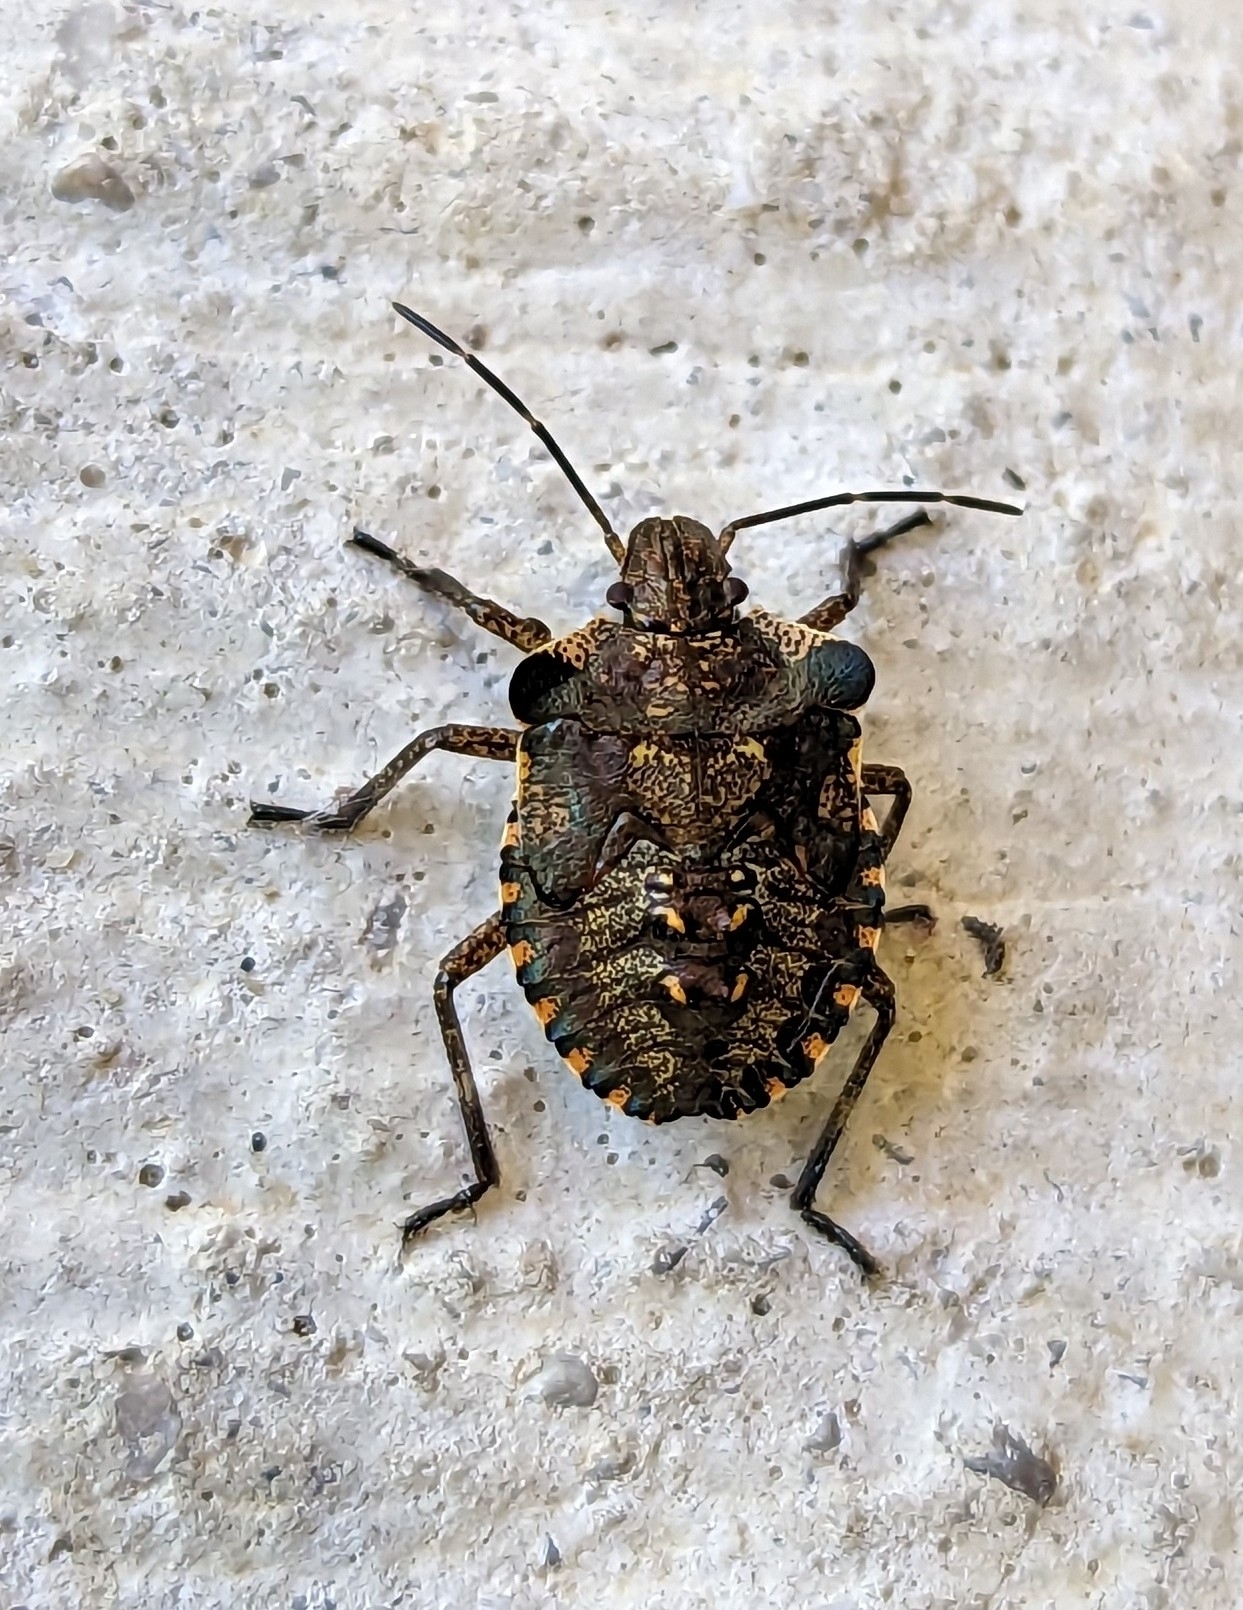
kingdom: Animalia
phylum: Arthropoda
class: Insecta
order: Hemiptera
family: Pentatomidae
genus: Pentatoma
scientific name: Pentatoma rufipes
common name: Forest bug
